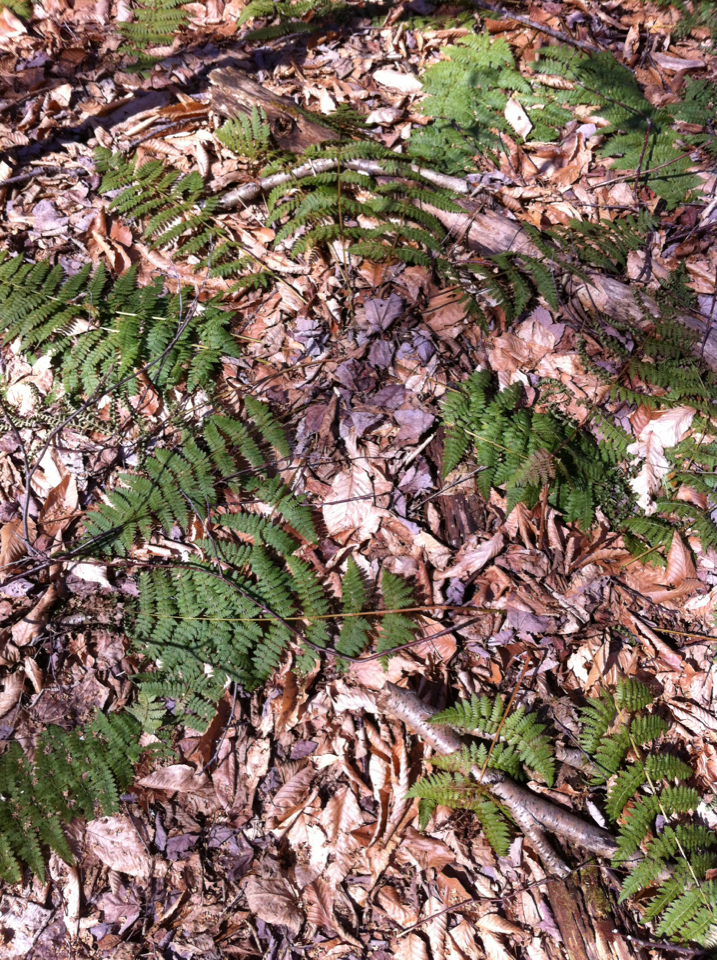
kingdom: Plantae
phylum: Tracheophyta
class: Polypodiopsida
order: Polypodiales
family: Dryopteridaceae
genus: Dryopteris
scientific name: Dryopteris intermedia
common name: Evergreen wood fern
